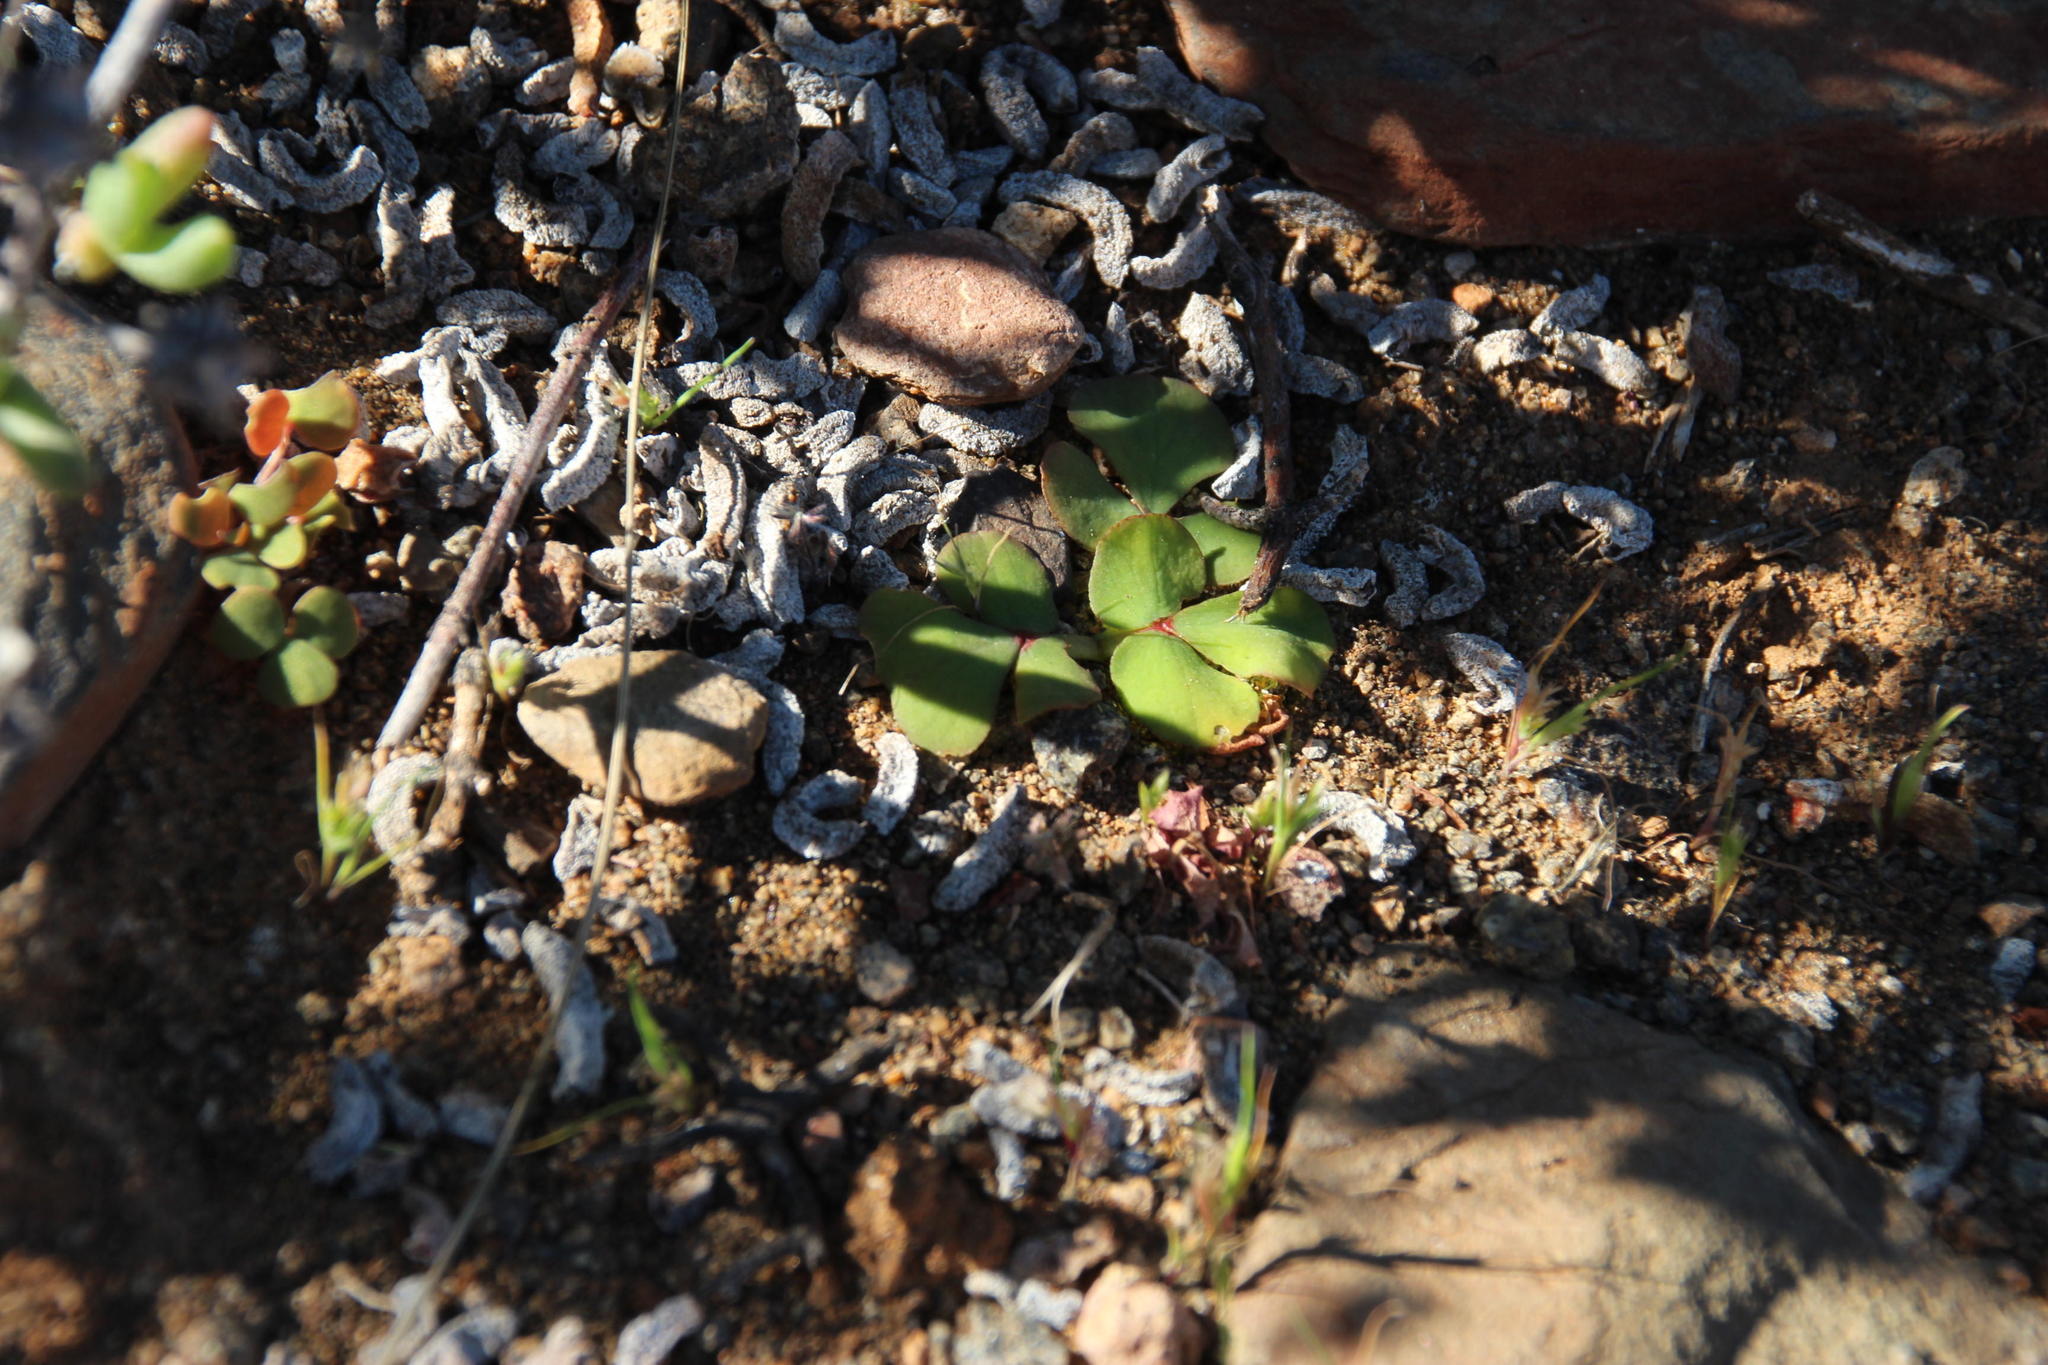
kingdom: Plantae
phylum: Tracheophyta
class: Magnoliopsida
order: Oxalidales
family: Oxalidaceae
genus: Oxalis
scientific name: Oxalis purpurea
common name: Purple woodsorrel
